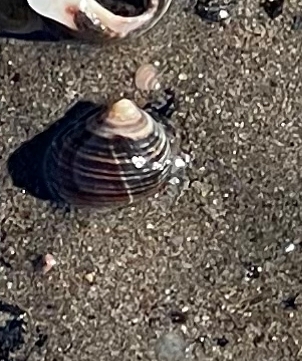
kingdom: Animalia
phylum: Mollusca
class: Gastropoda
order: Littorinimorpha
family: Littorinidae
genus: Littorina
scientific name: Littorina littorea
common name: Common periwinkle
